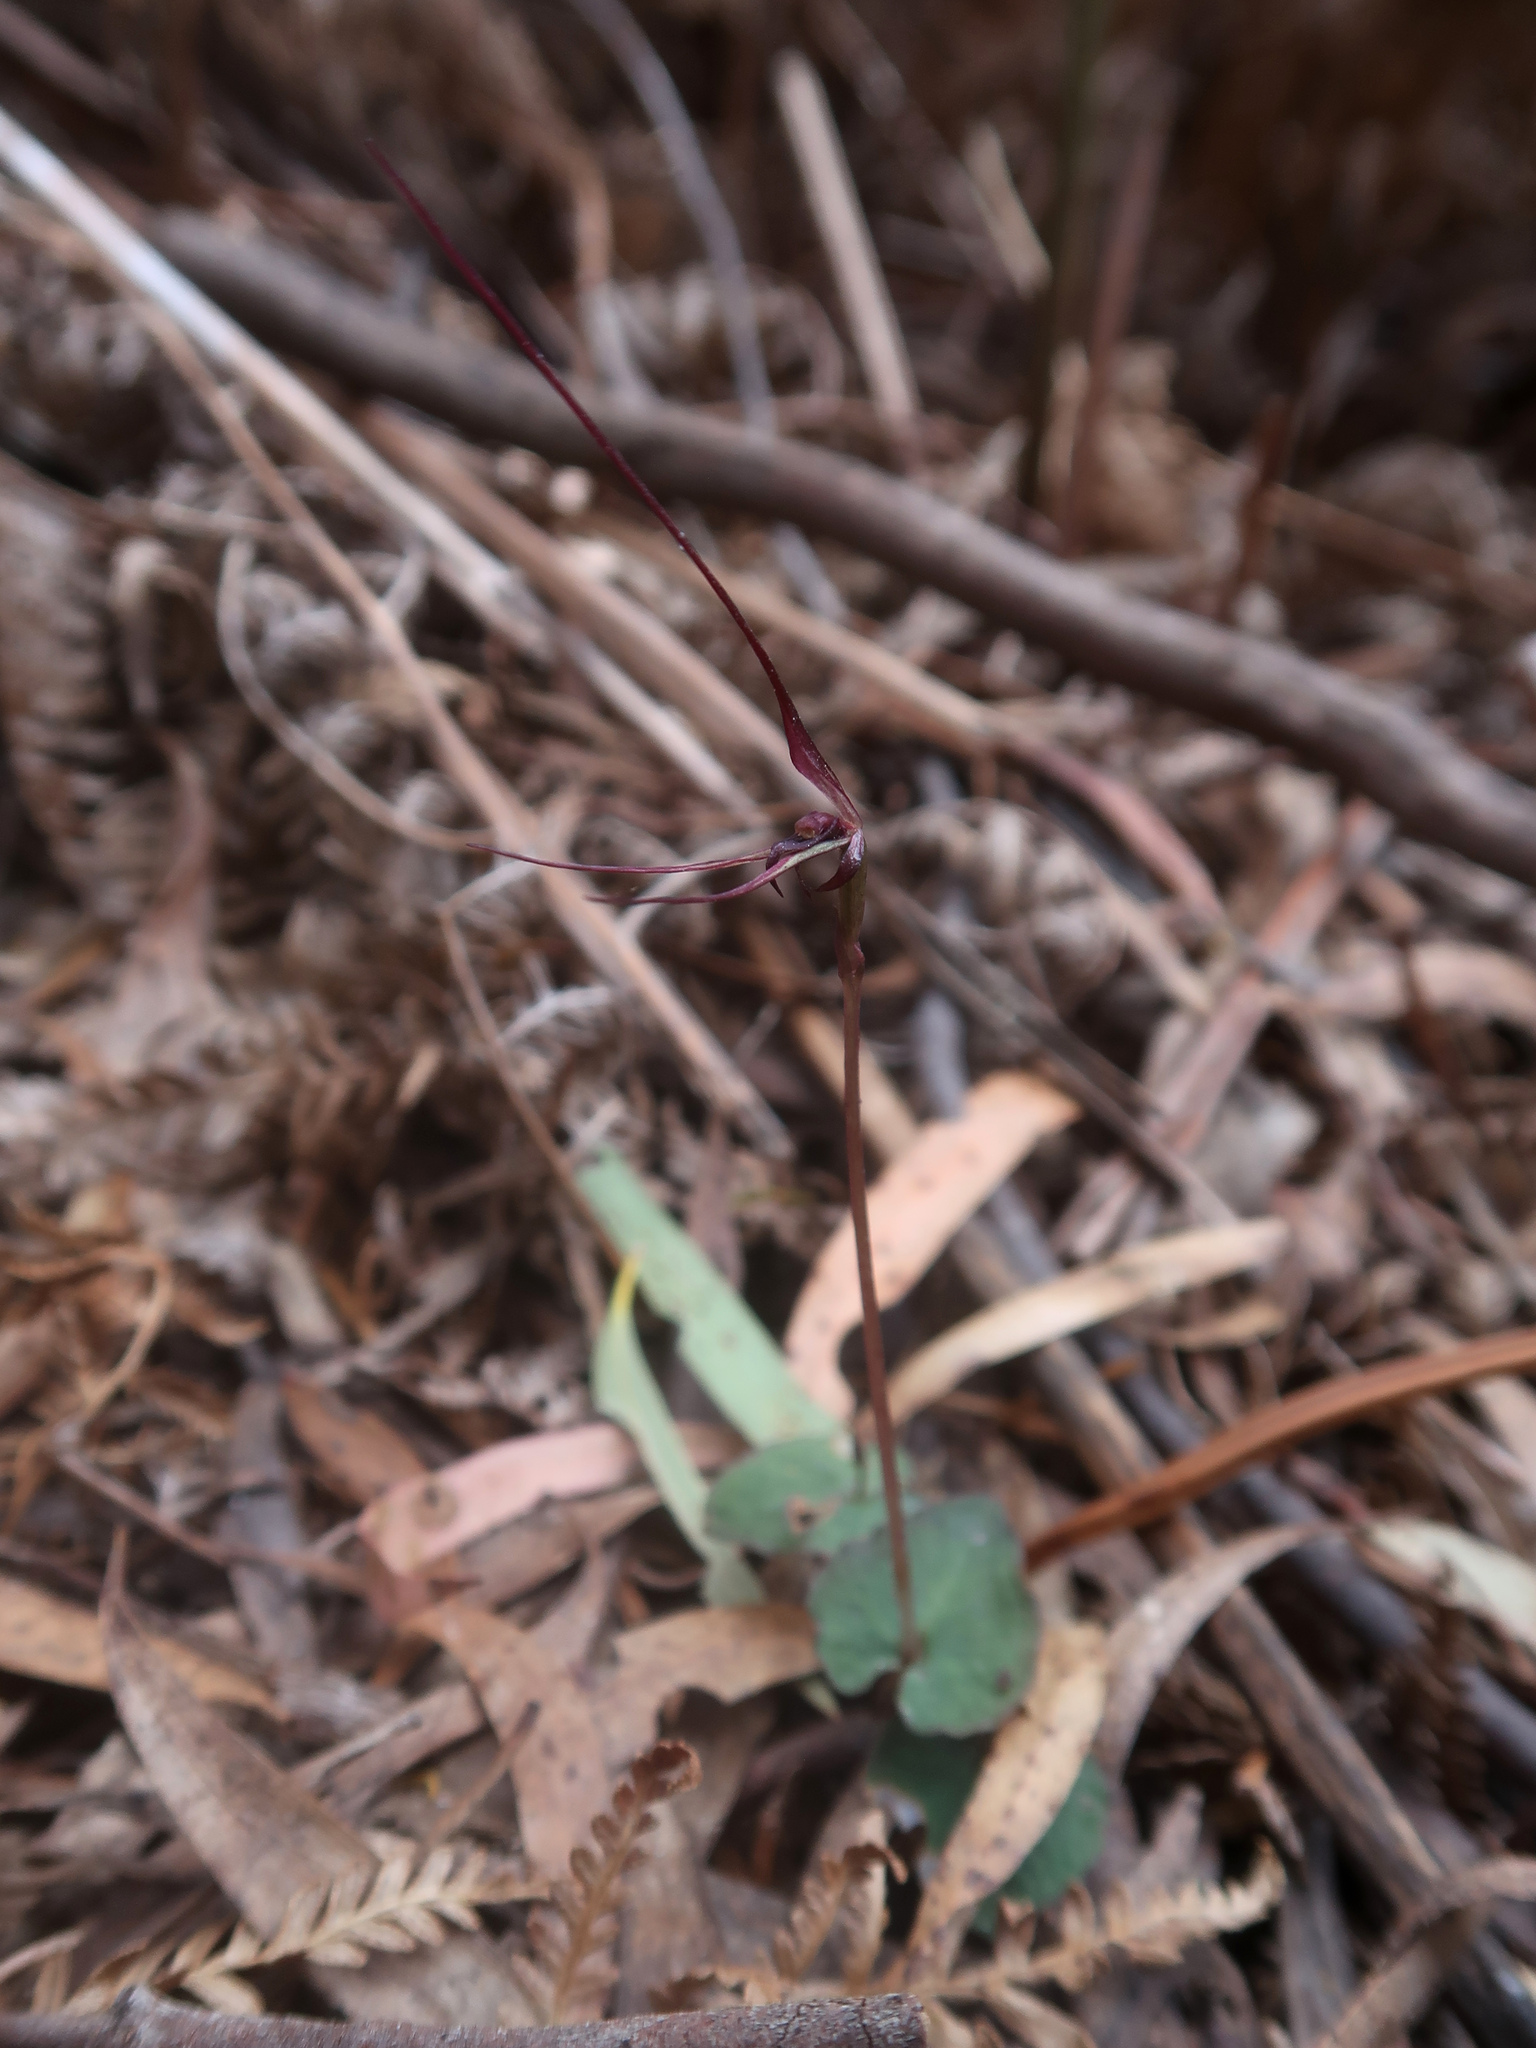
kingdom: Plantae
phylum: Tracheophyta
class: Liliopsida
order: Asparagales
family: Orchidaceae
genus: Acianthus
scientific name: Acianthus caudatus
